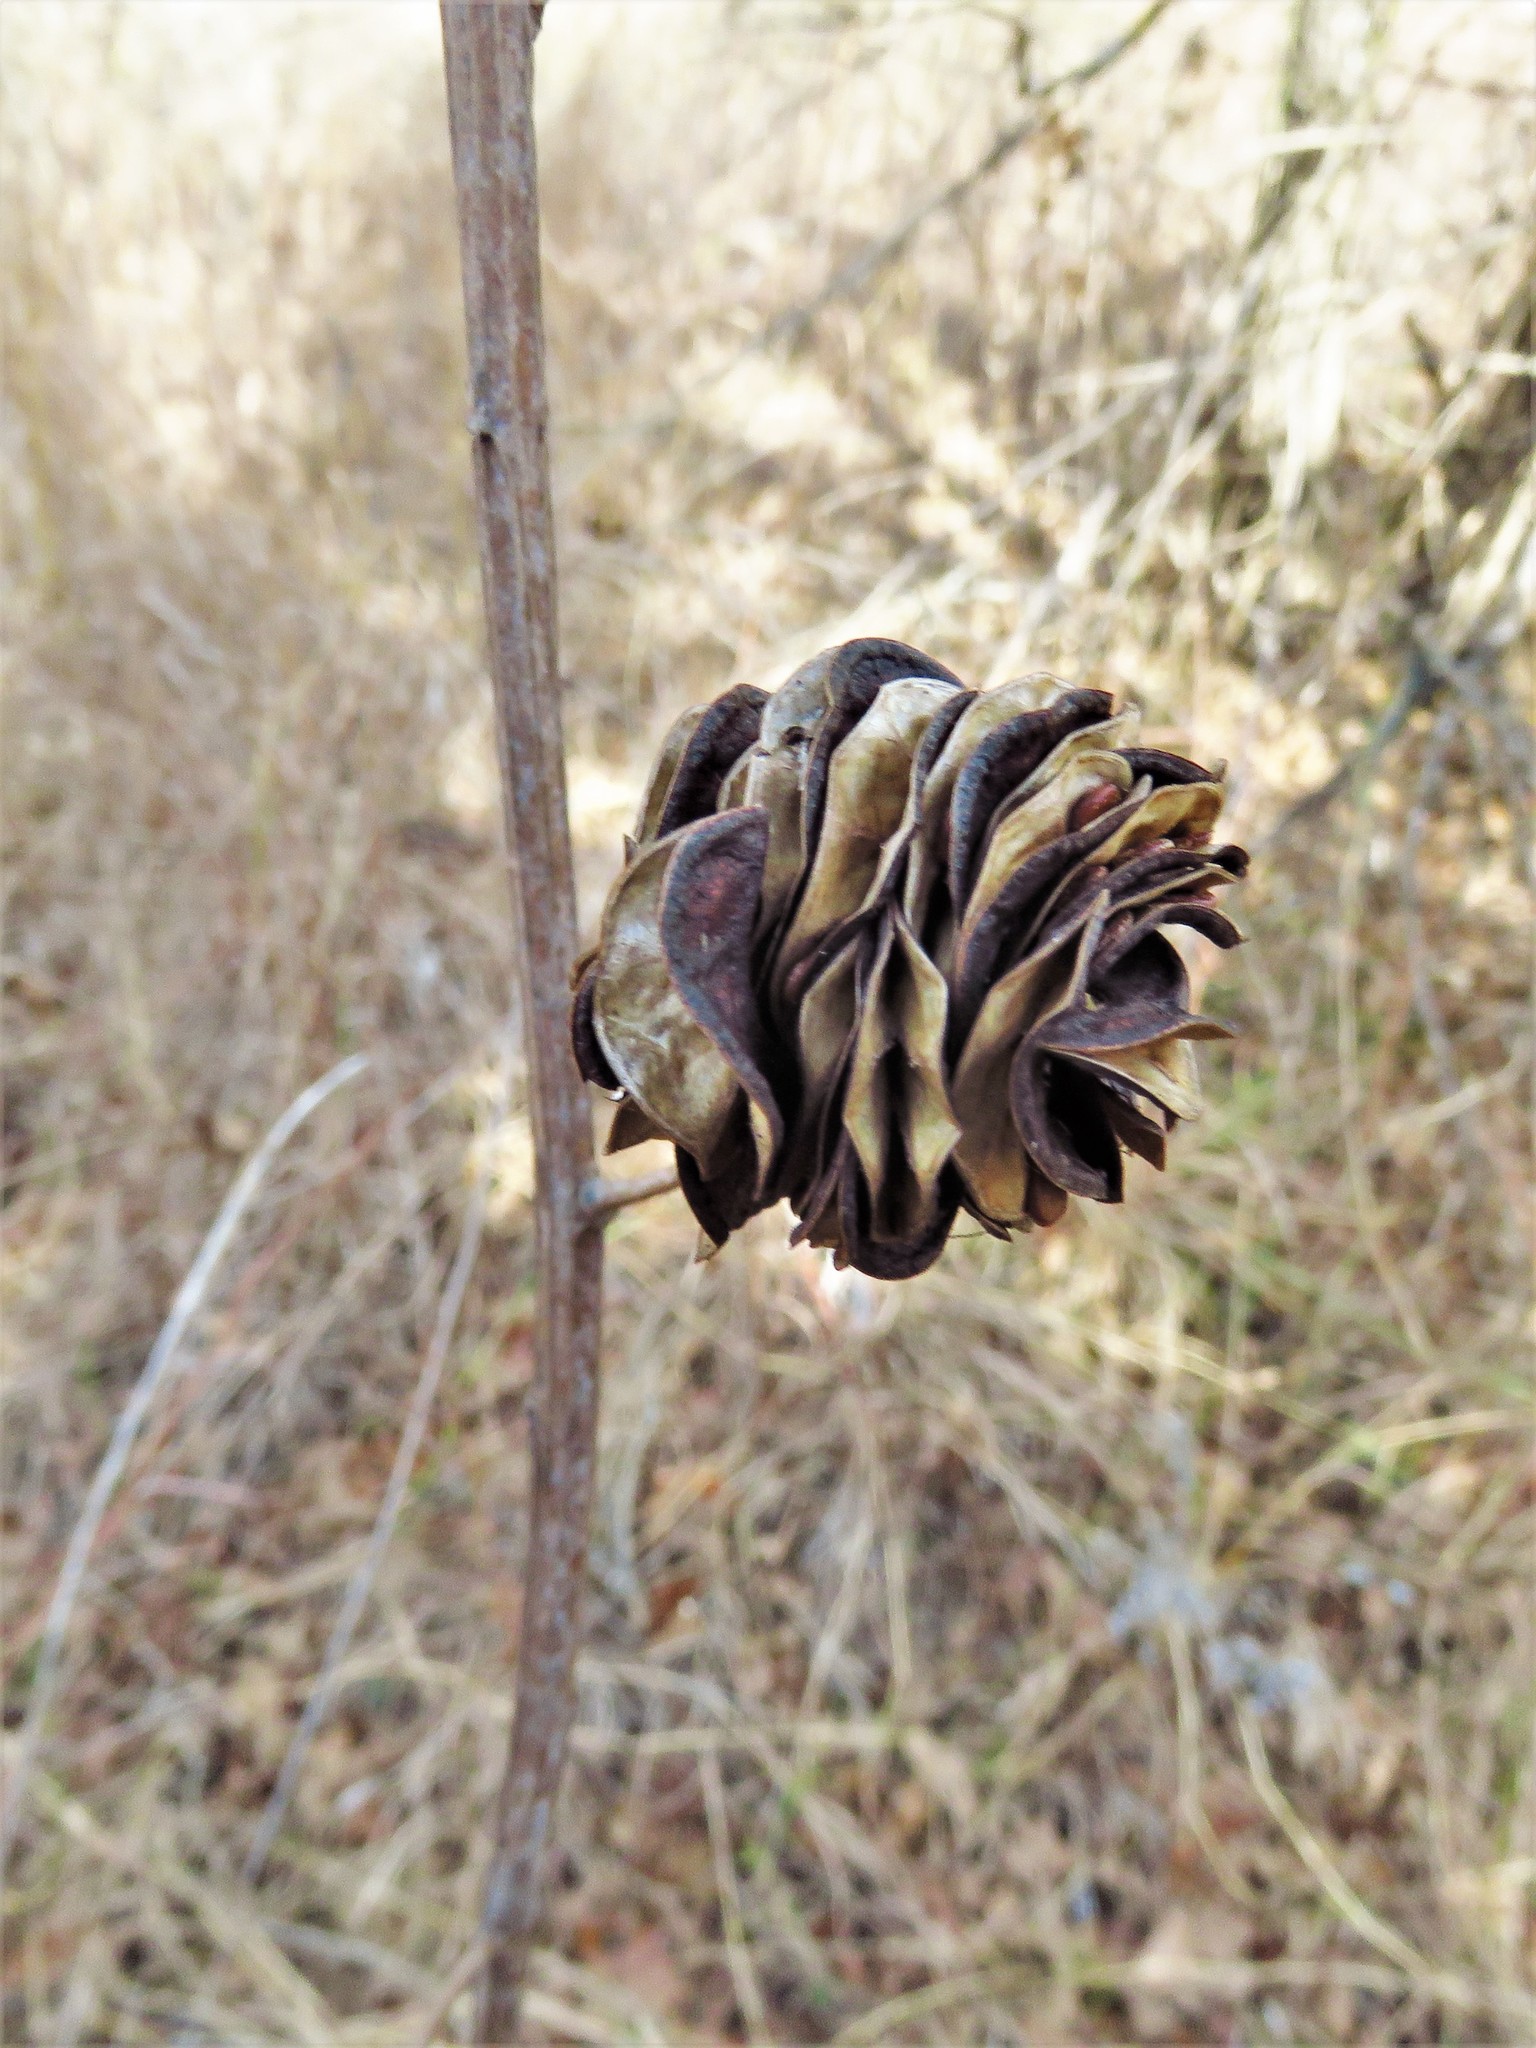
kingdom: Plantae
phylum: Tracheophyta
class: Magnoliopsida
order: Fabales
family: Fabaceae
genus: Desmanthus
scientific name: Desmanthus illinoensis
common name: Illinois bundle-flower
